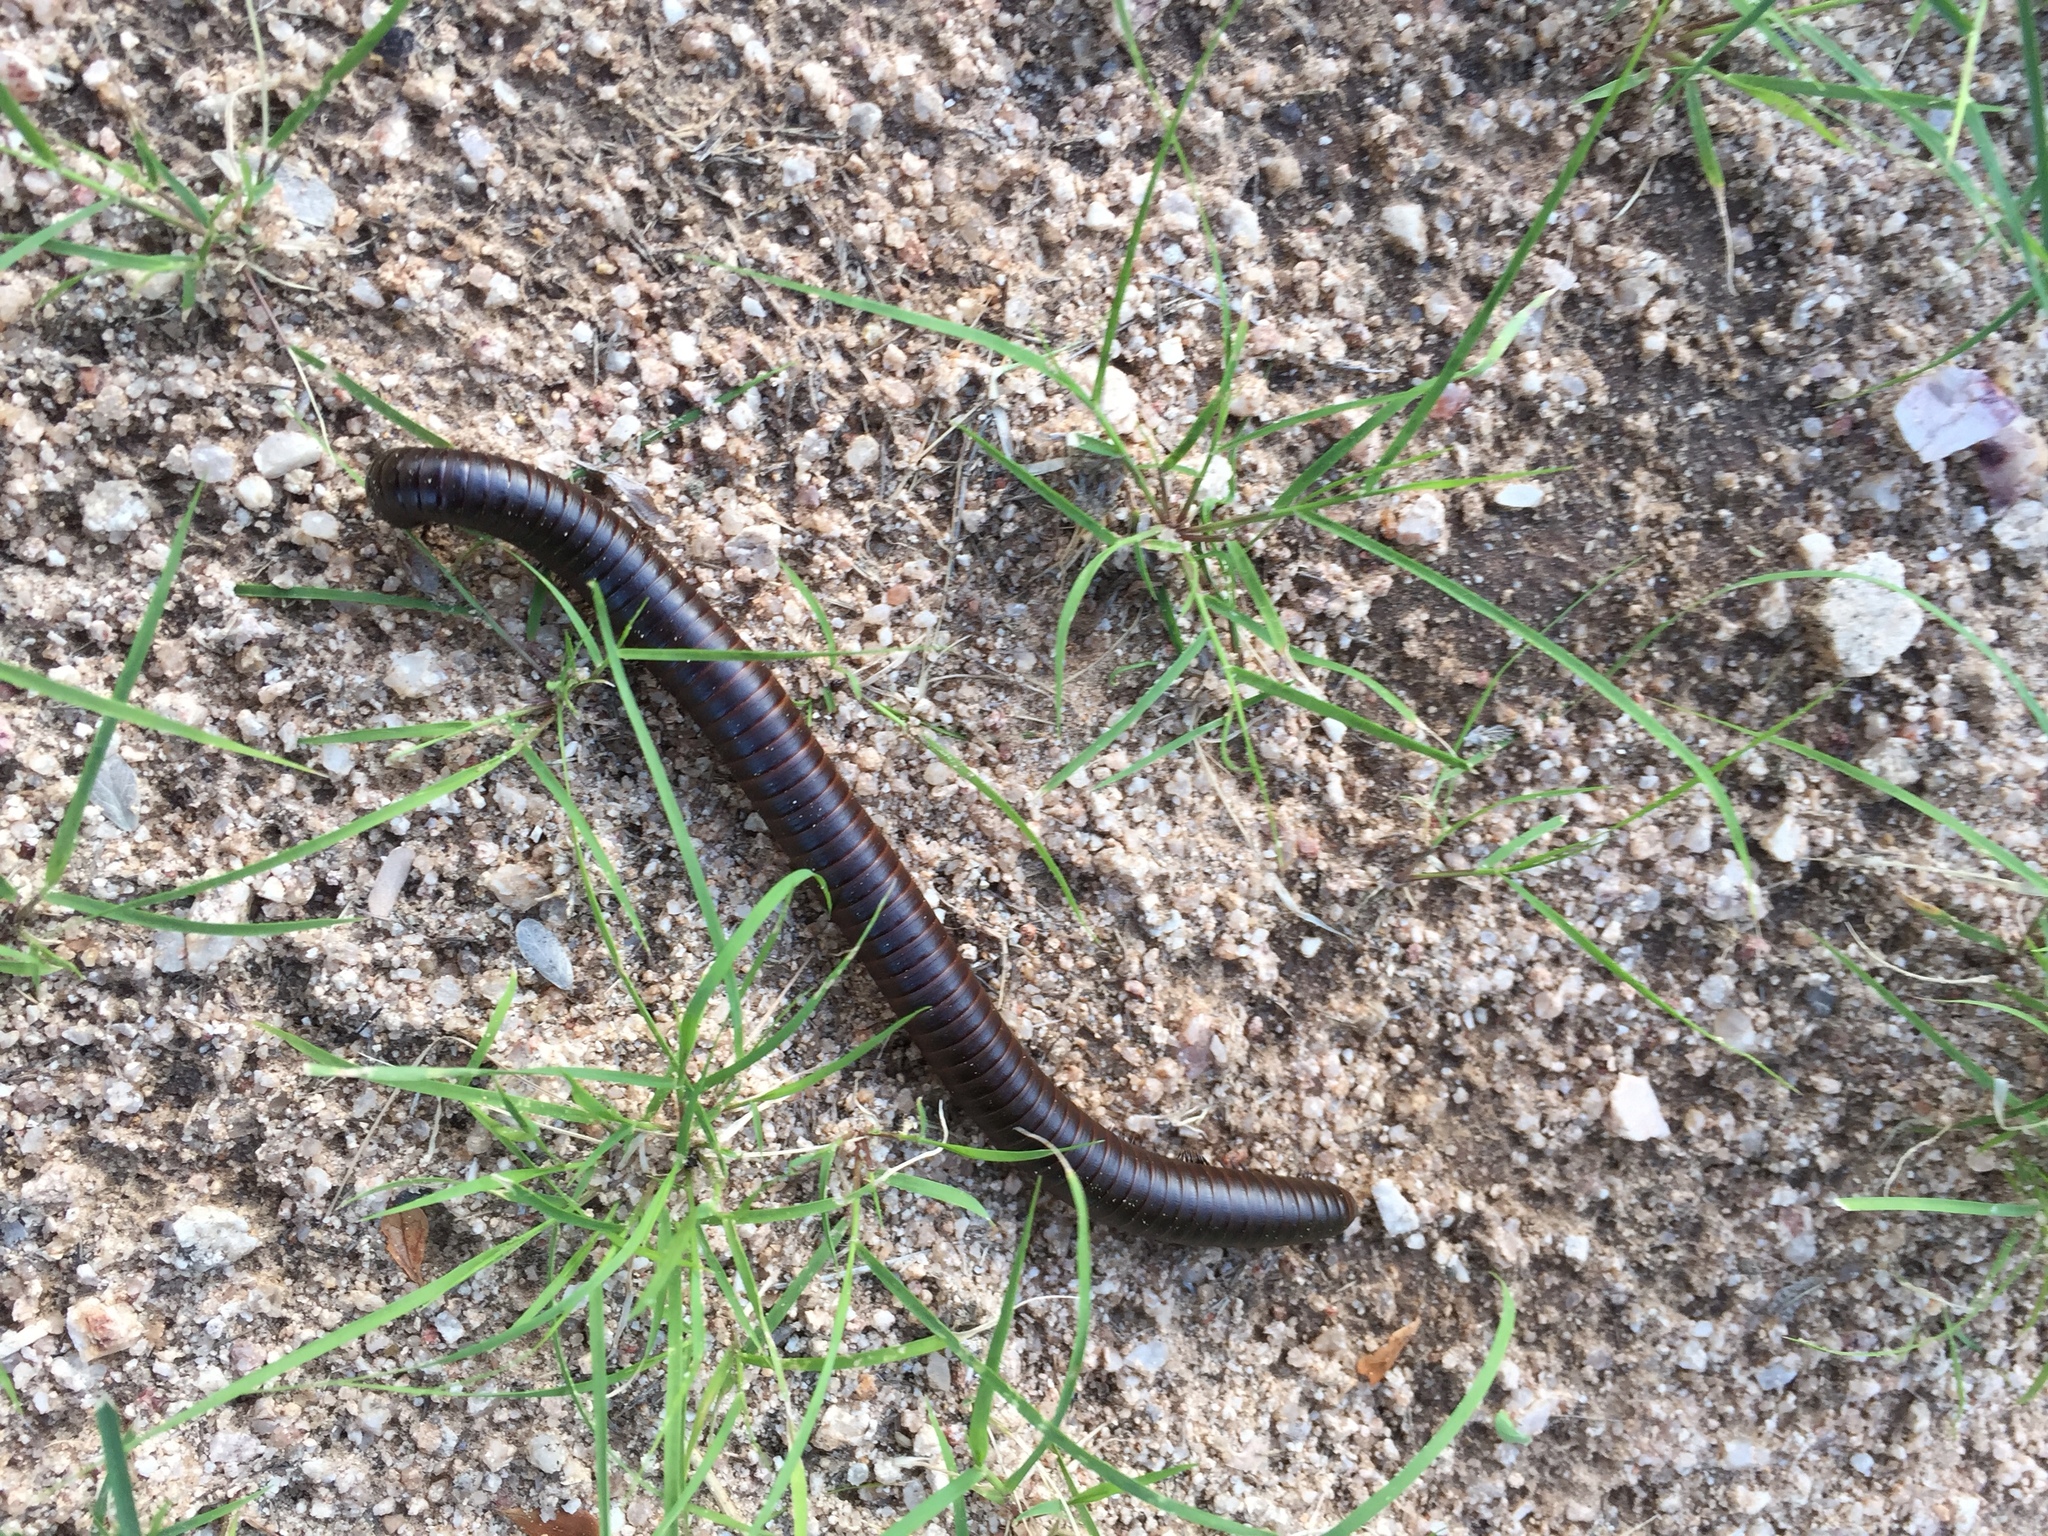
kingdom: Animalia
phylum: Arthropoda
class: Diplopoda
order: Spirostreptida
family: Spirostreptidae
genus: Orthoporus
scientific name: Orthoporus texicolens
